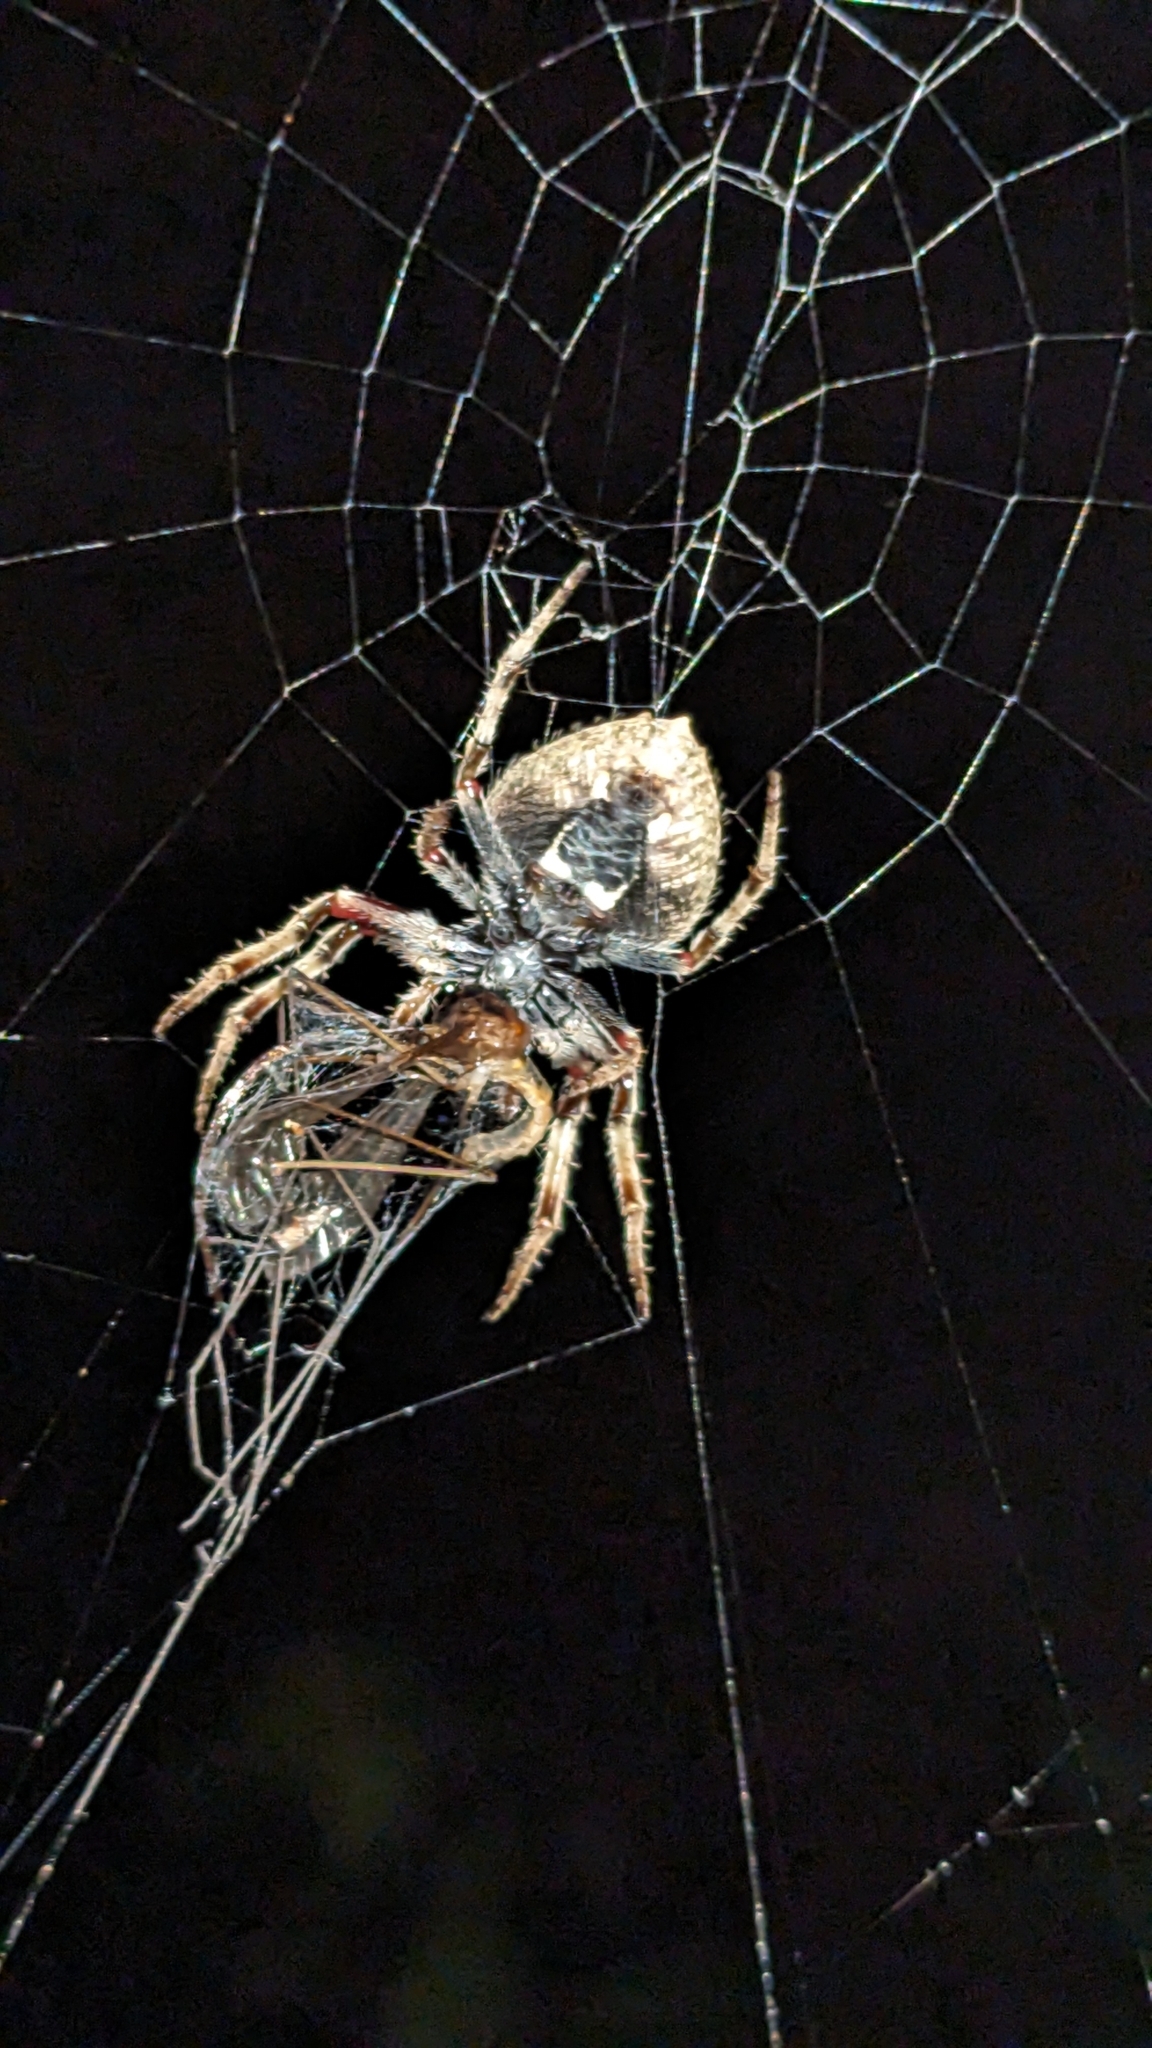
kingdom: Animalia
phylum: Arthropoda
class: Arachnida
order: Araneae
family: Araneidae
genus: Eriophora
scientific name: Eriophora pustulosa
